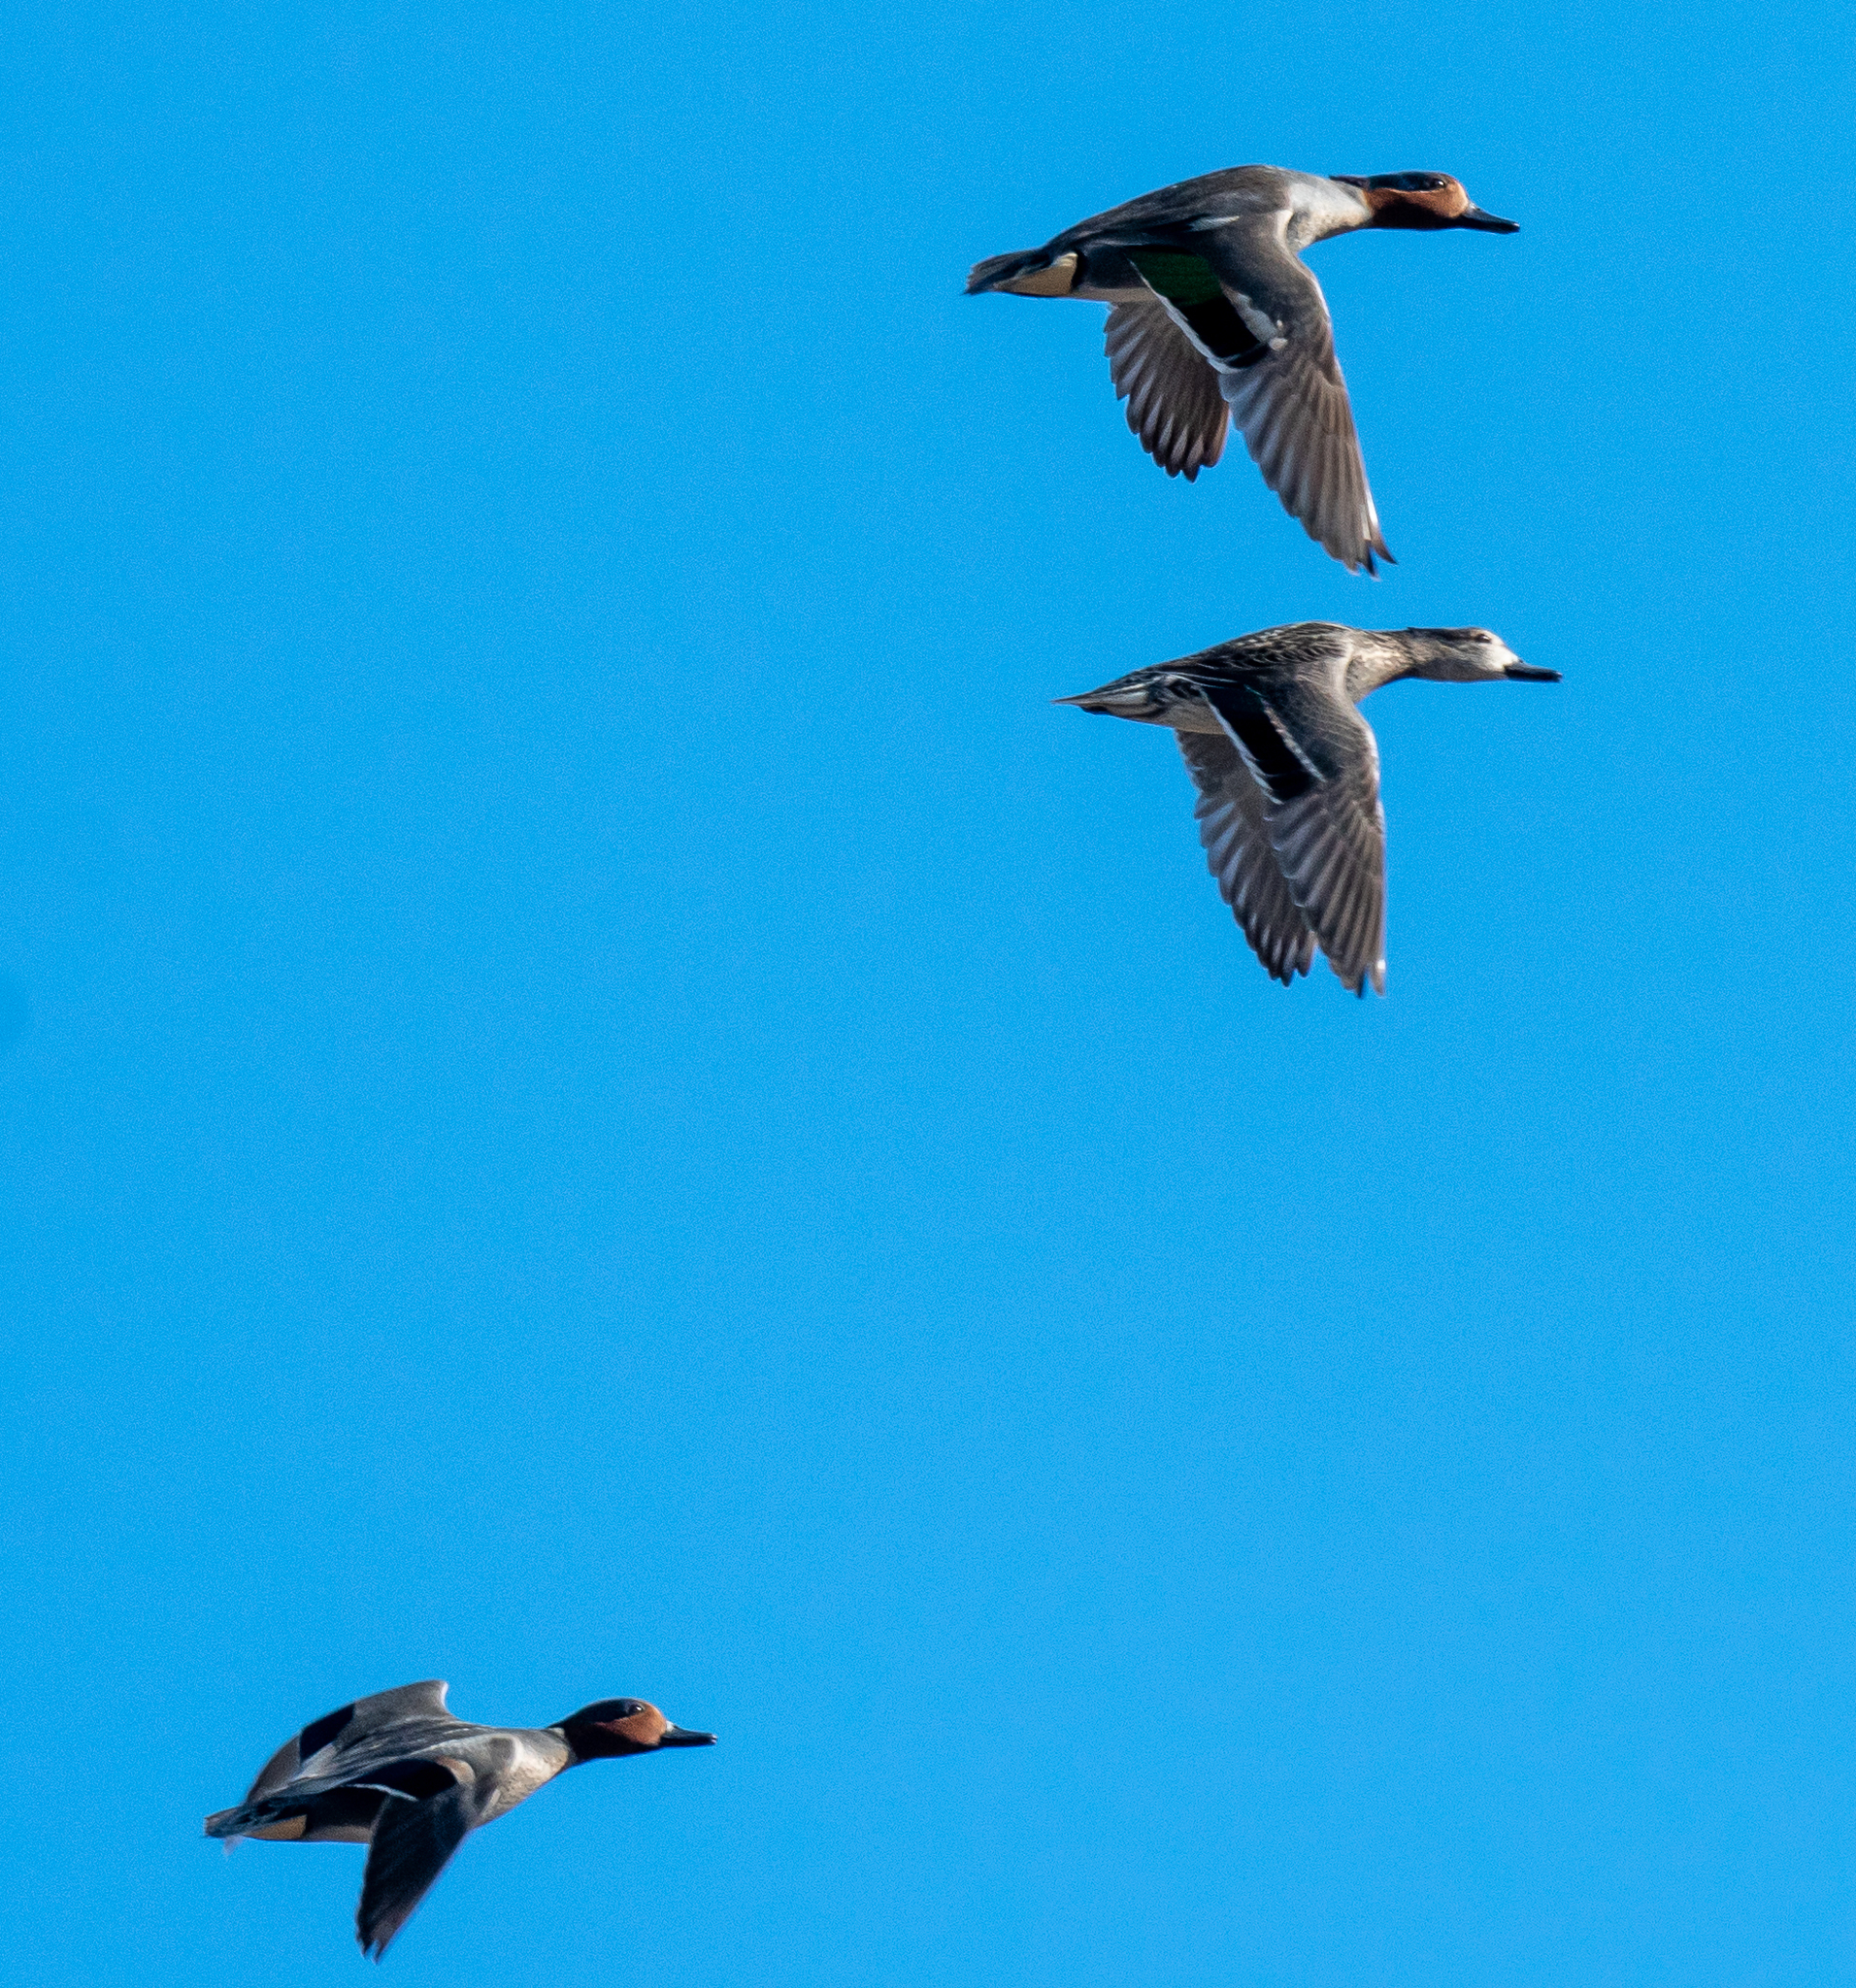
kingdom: Animalia
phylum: Chordata
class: Aves
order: Anseriformes
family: Anatidae
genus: Anas
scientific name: Anas crecca
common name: Eurasian teal
